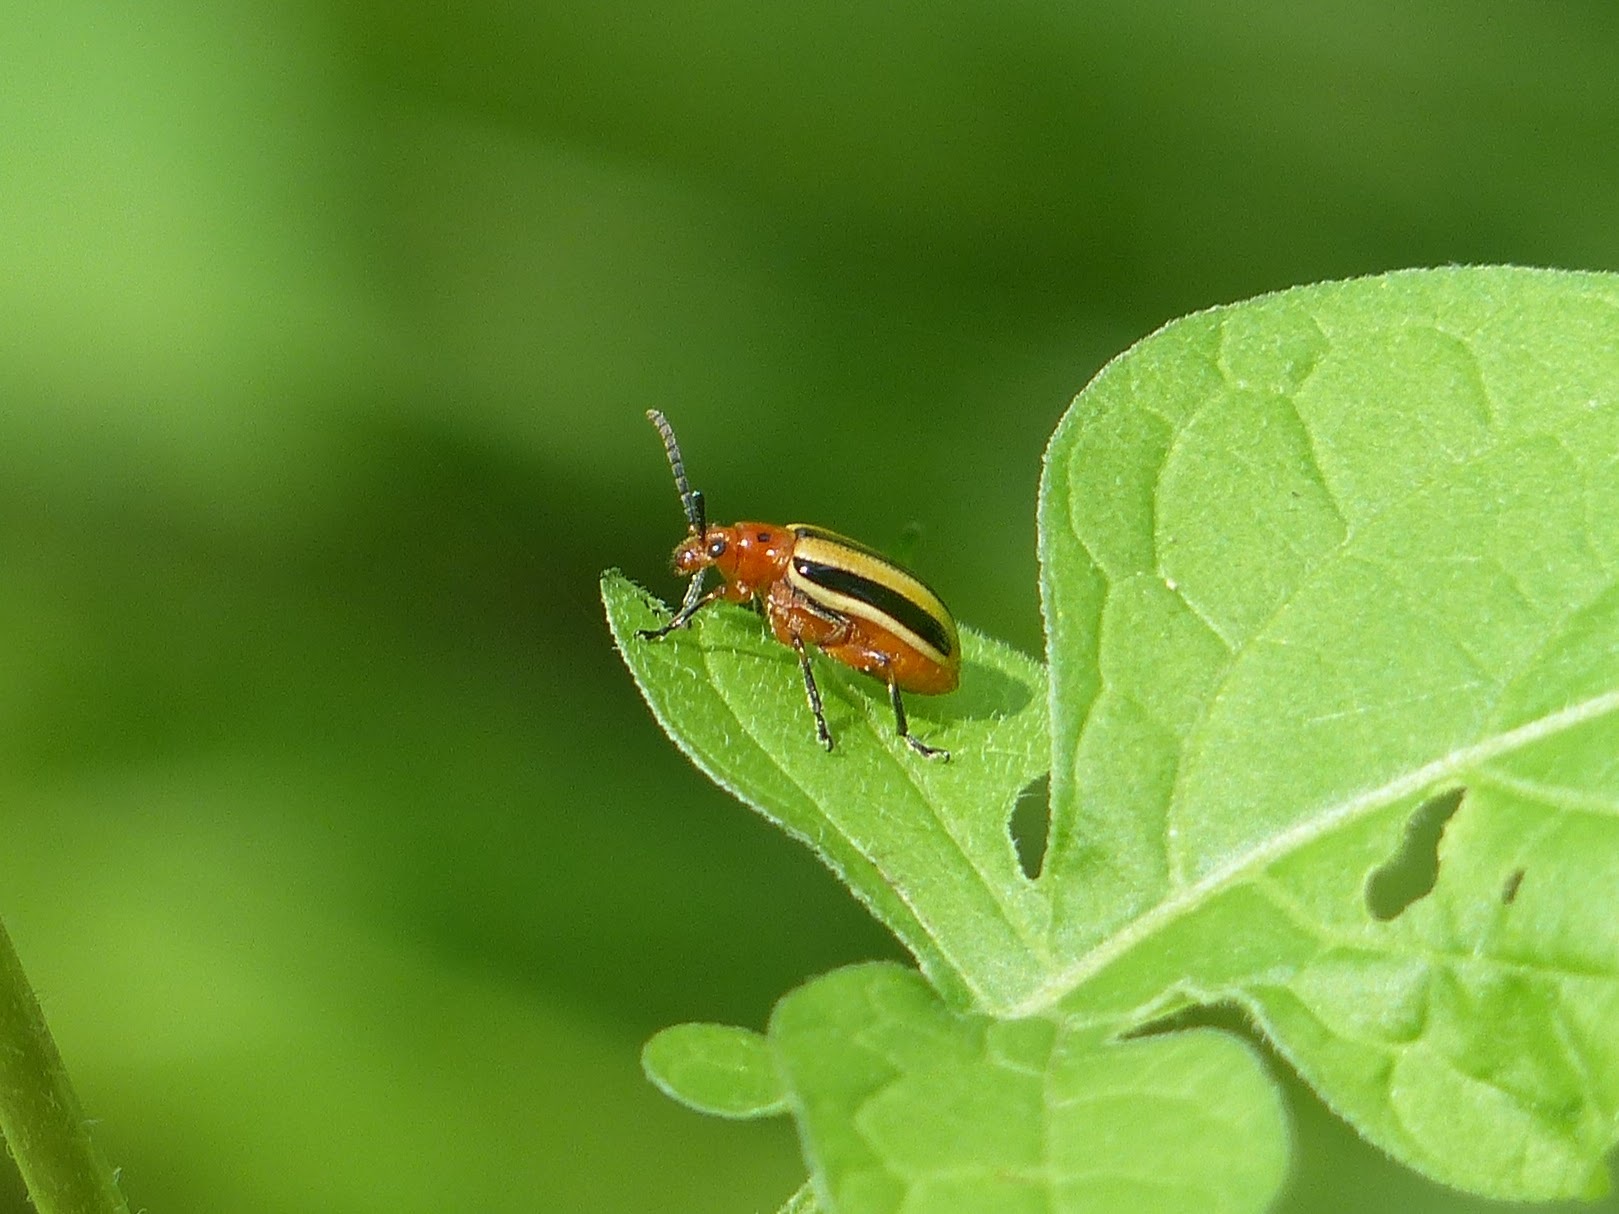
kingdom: Animalia
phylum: Arthropoda
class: Insecta
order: Coleoptera
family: Chrysomelidae
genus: Lema
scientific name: Lema daturaphila
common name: Leaf beetle
